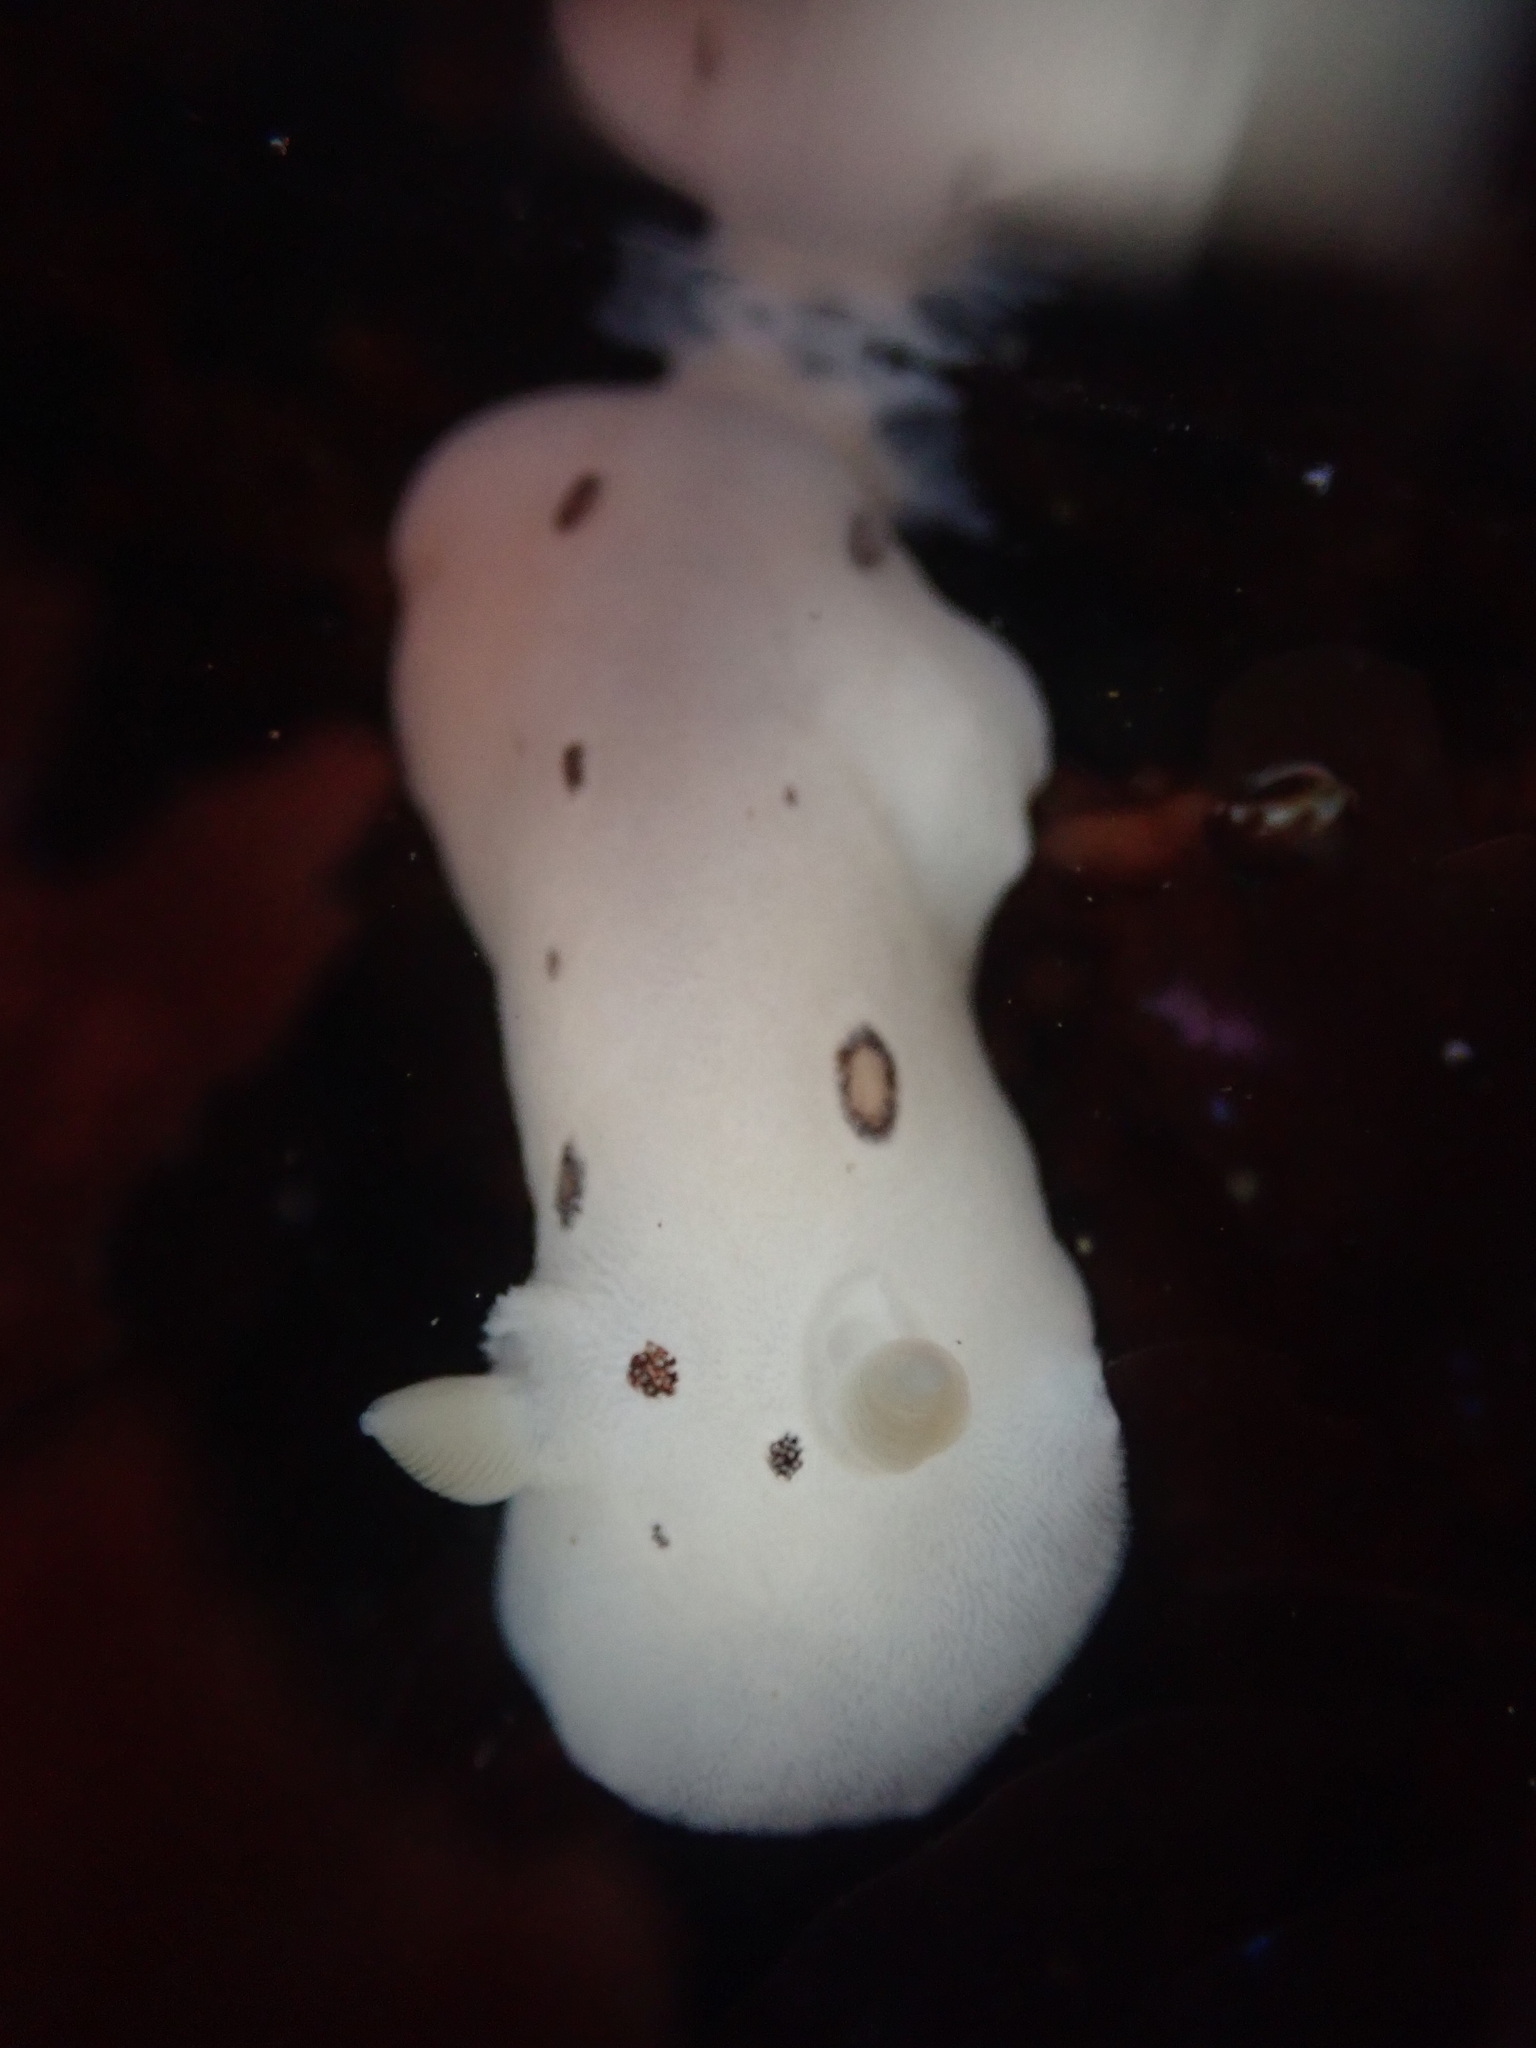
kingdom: Animalia
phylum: Mollusca
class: Gastropoda
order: Nudibranchia
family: Discodorididae
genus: Diaulula
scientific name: Diaulula sandiegensis
